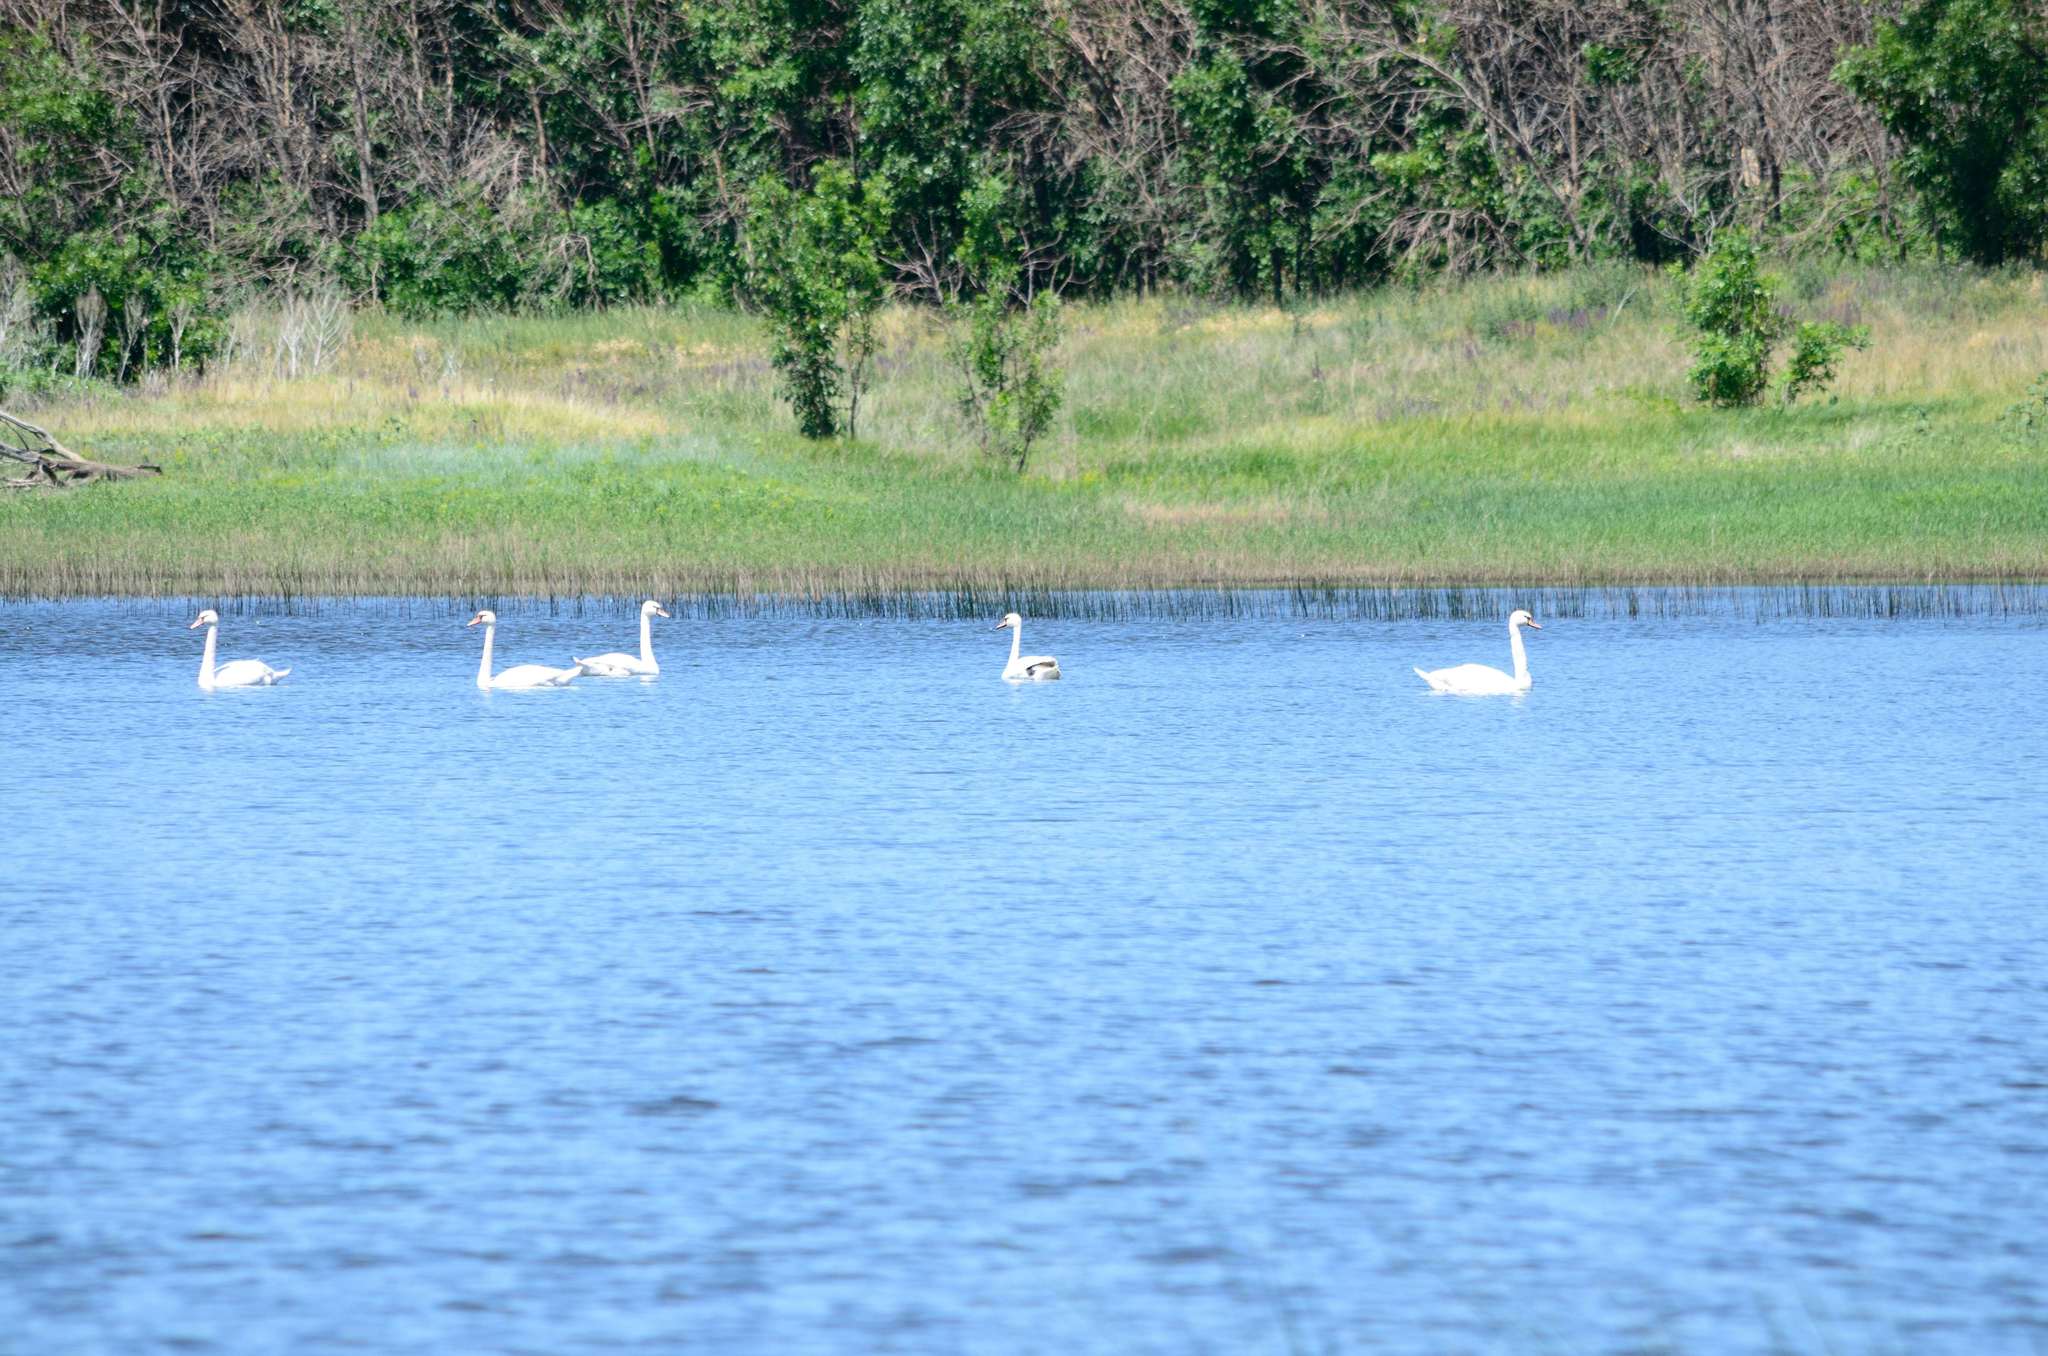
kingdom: Animalia
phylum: Chordata
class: Aves
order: Anseriformes
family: Anatidae
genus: Cygnus
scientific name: Cygnus olor
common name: Mute swan
